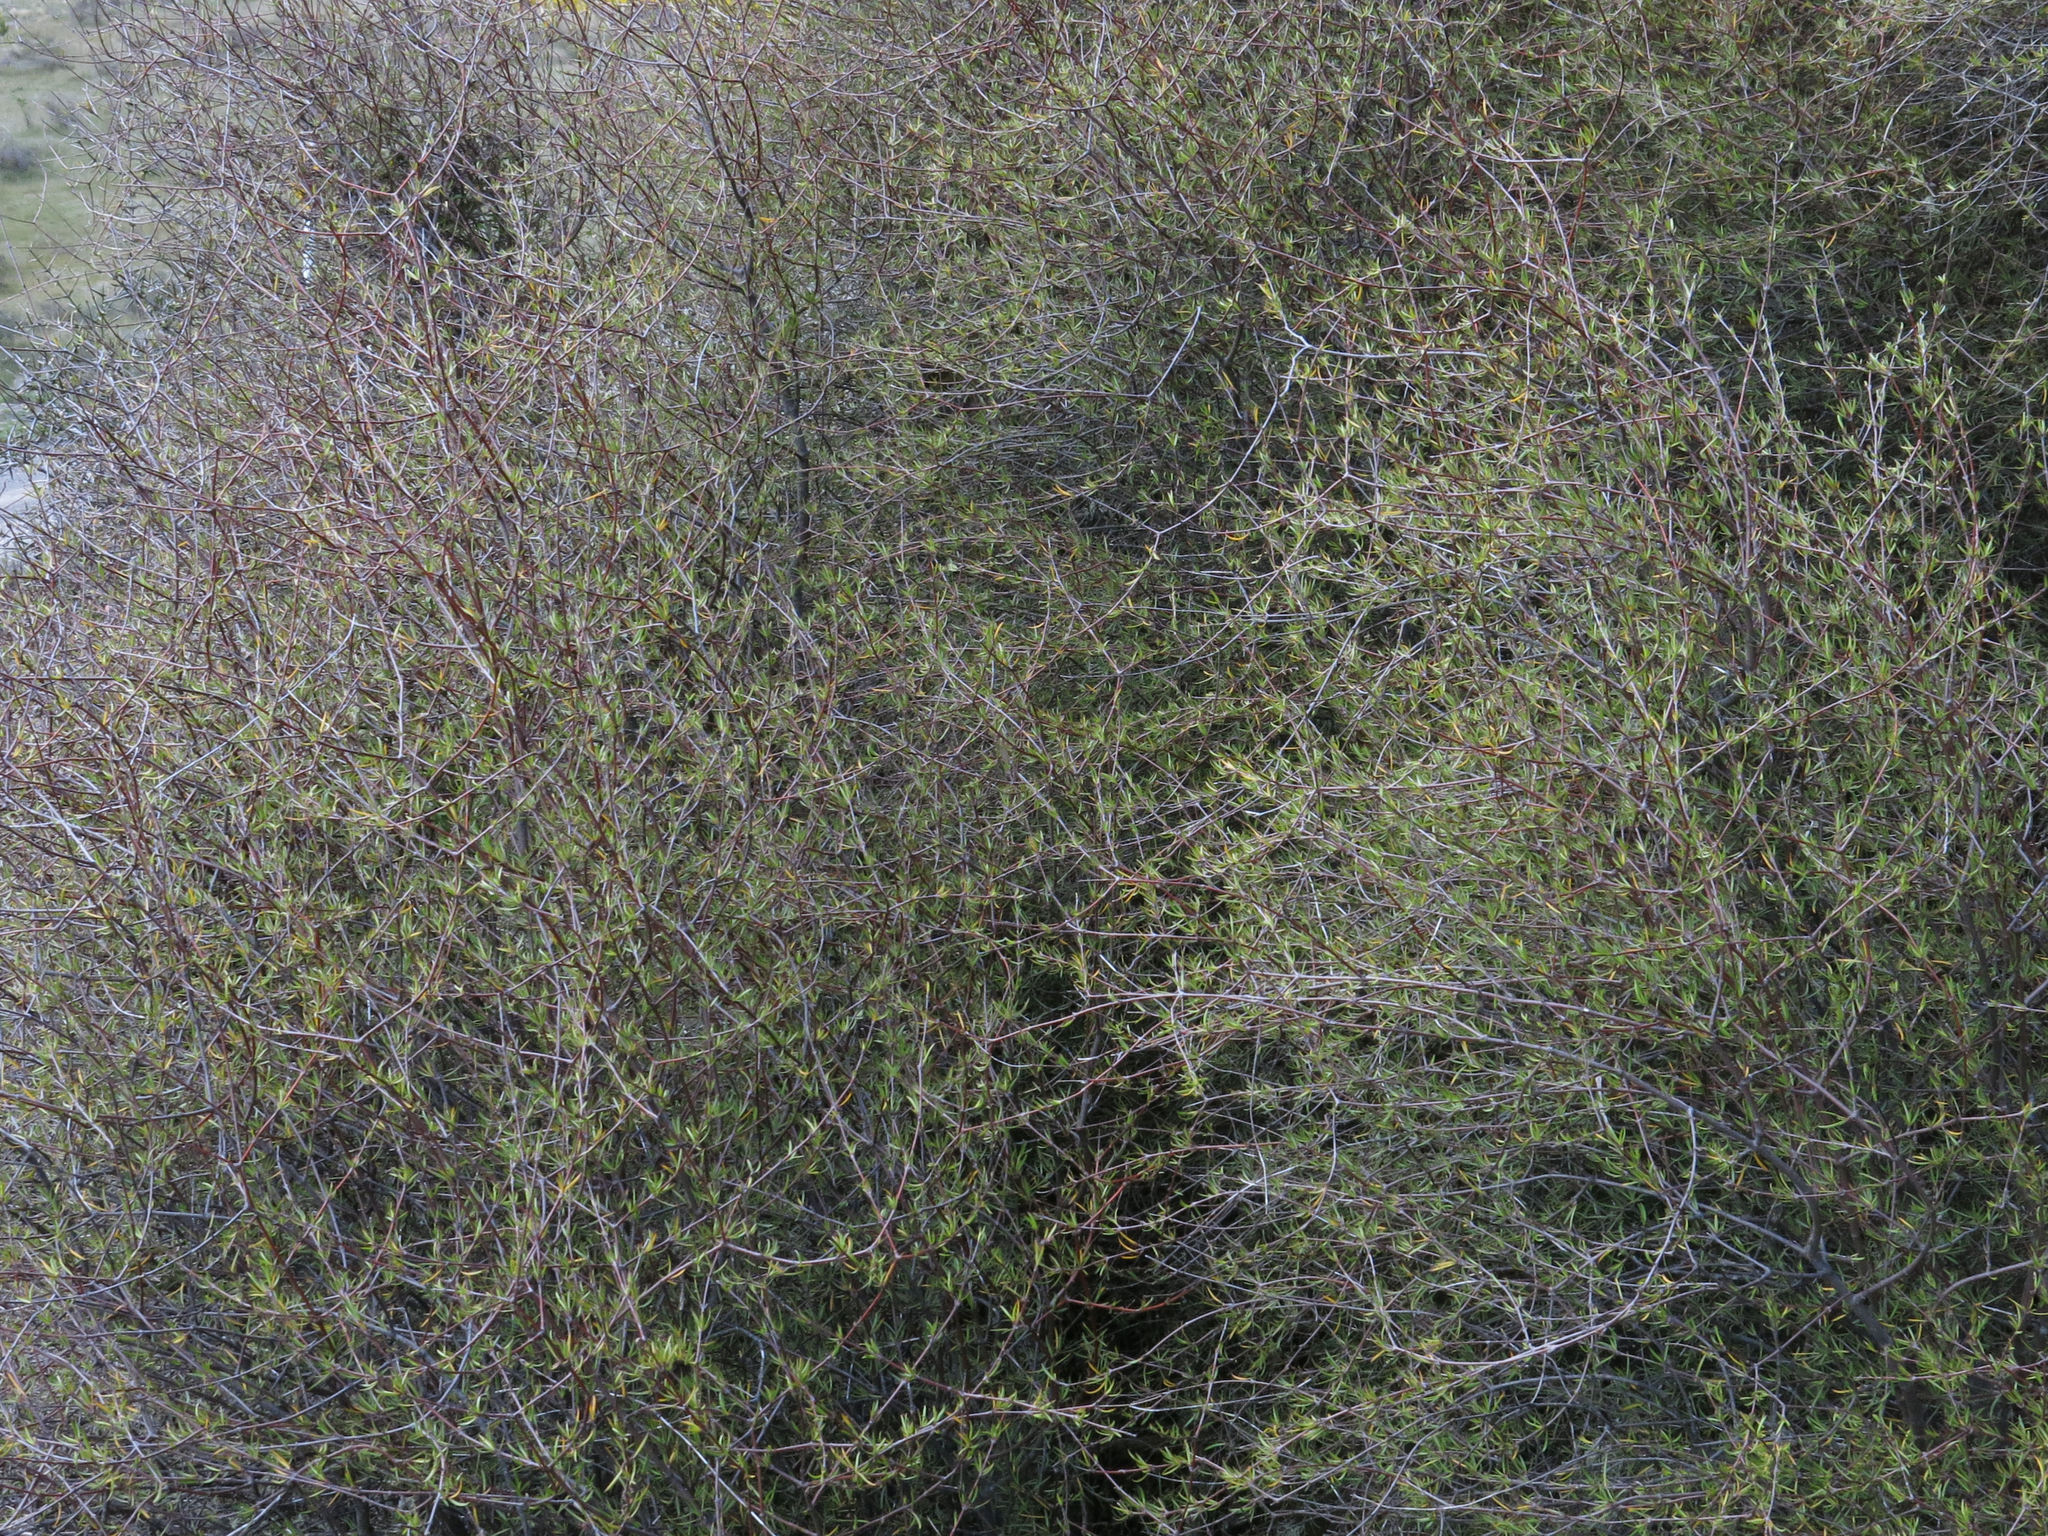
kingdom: Plantae
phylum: Tracheophyta
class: Magnoliopsida
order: Gentianales
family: Rubiaceae
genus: Coprosma
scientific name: Coprosma intertexta
